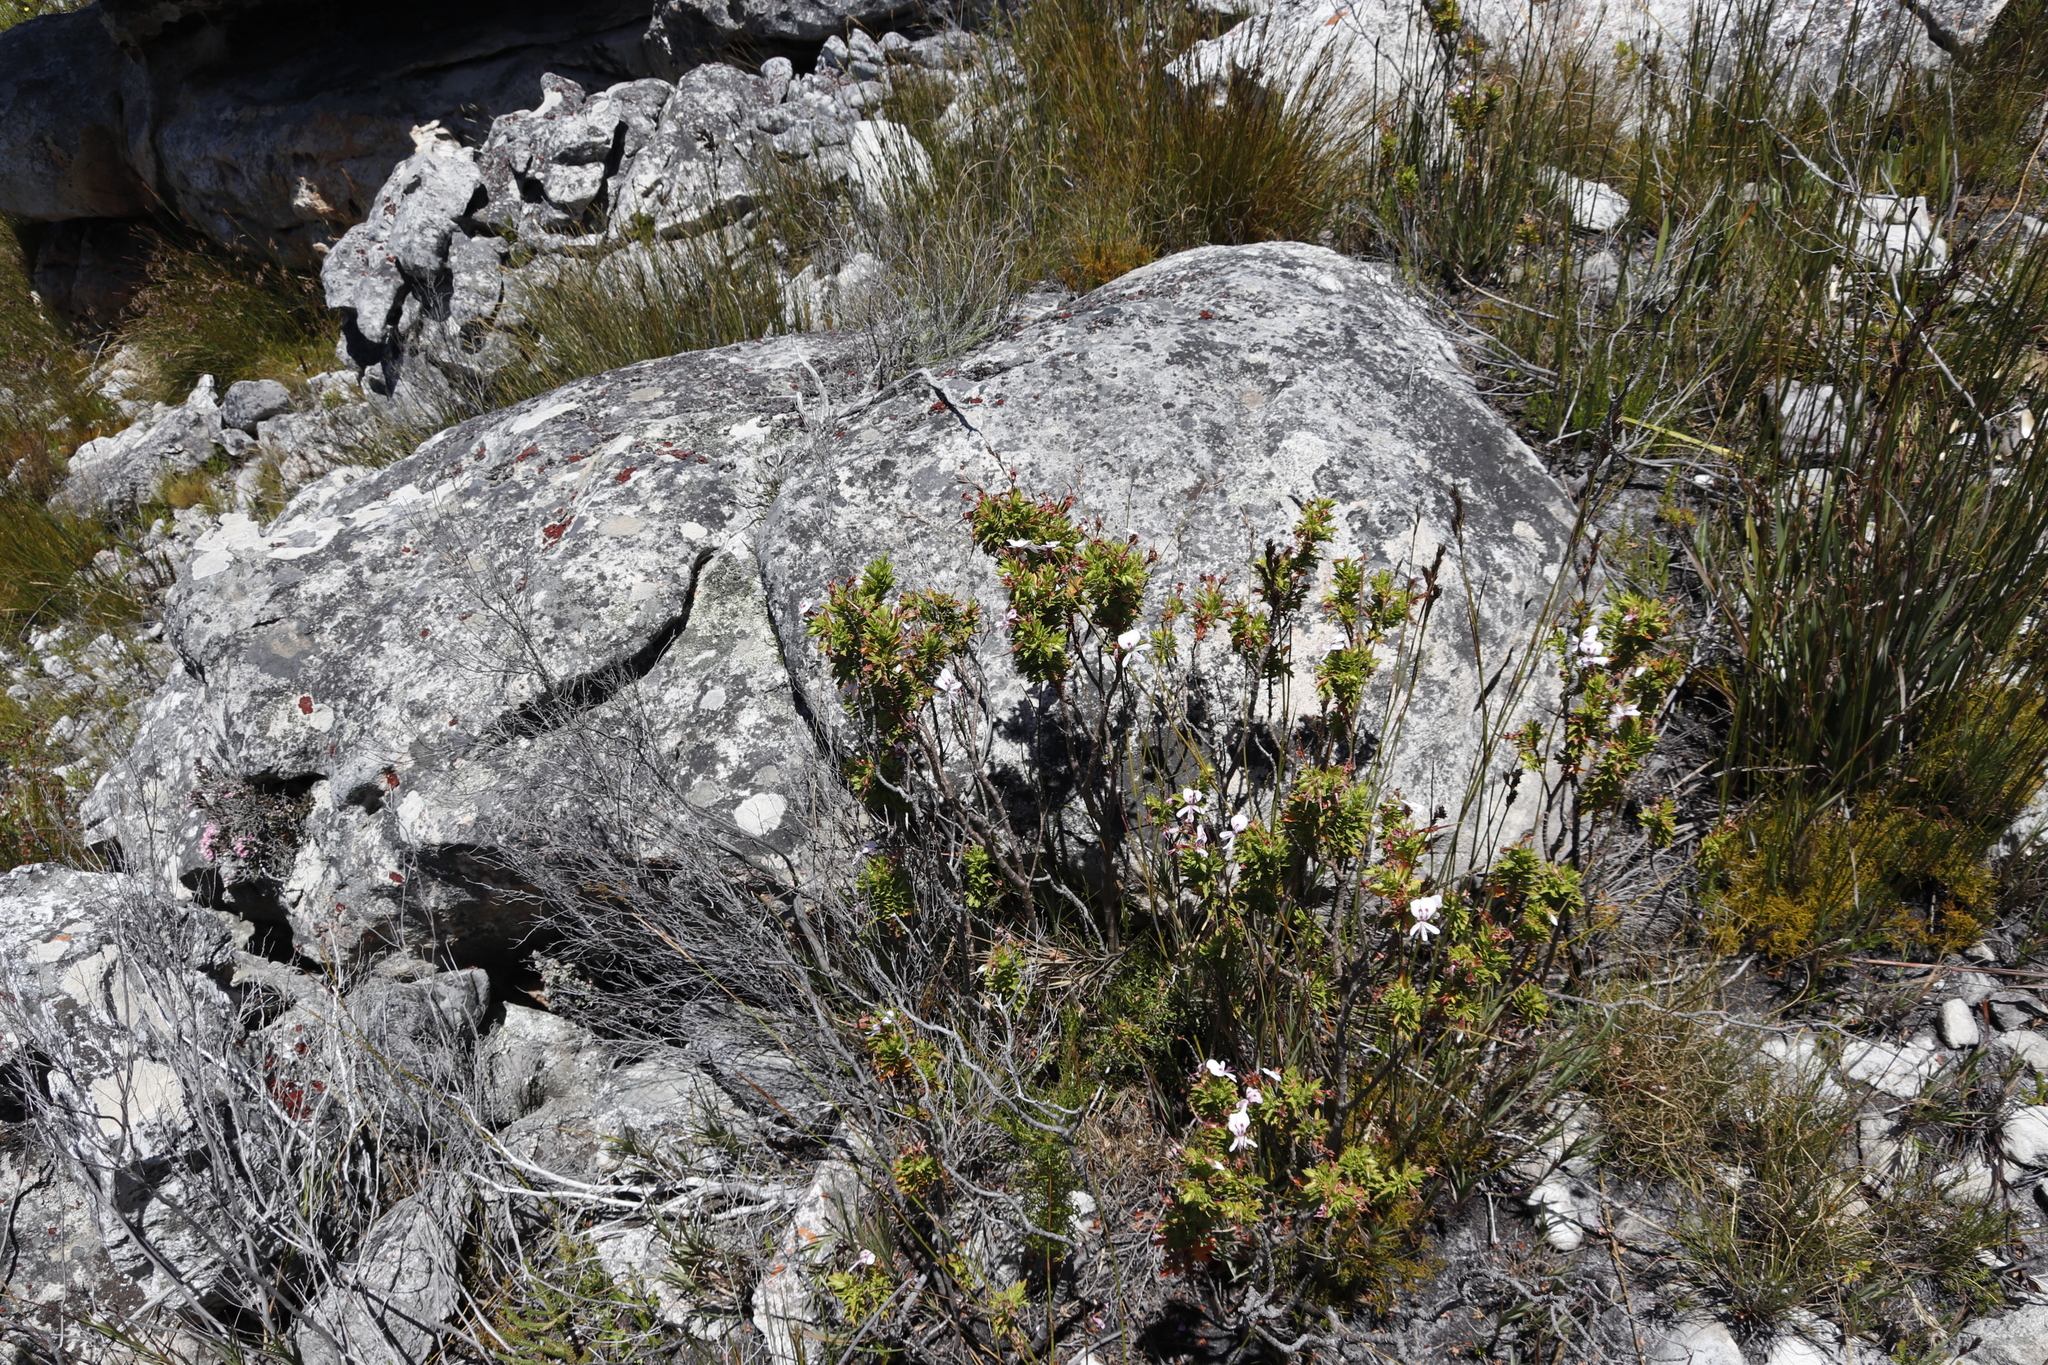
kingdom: Plantae
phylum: Tracheophyta
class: Magnoliopsida
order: Geraniales
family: Geraniaceae
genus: Pelargonium
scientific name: Pelargonium hermaniifolium
